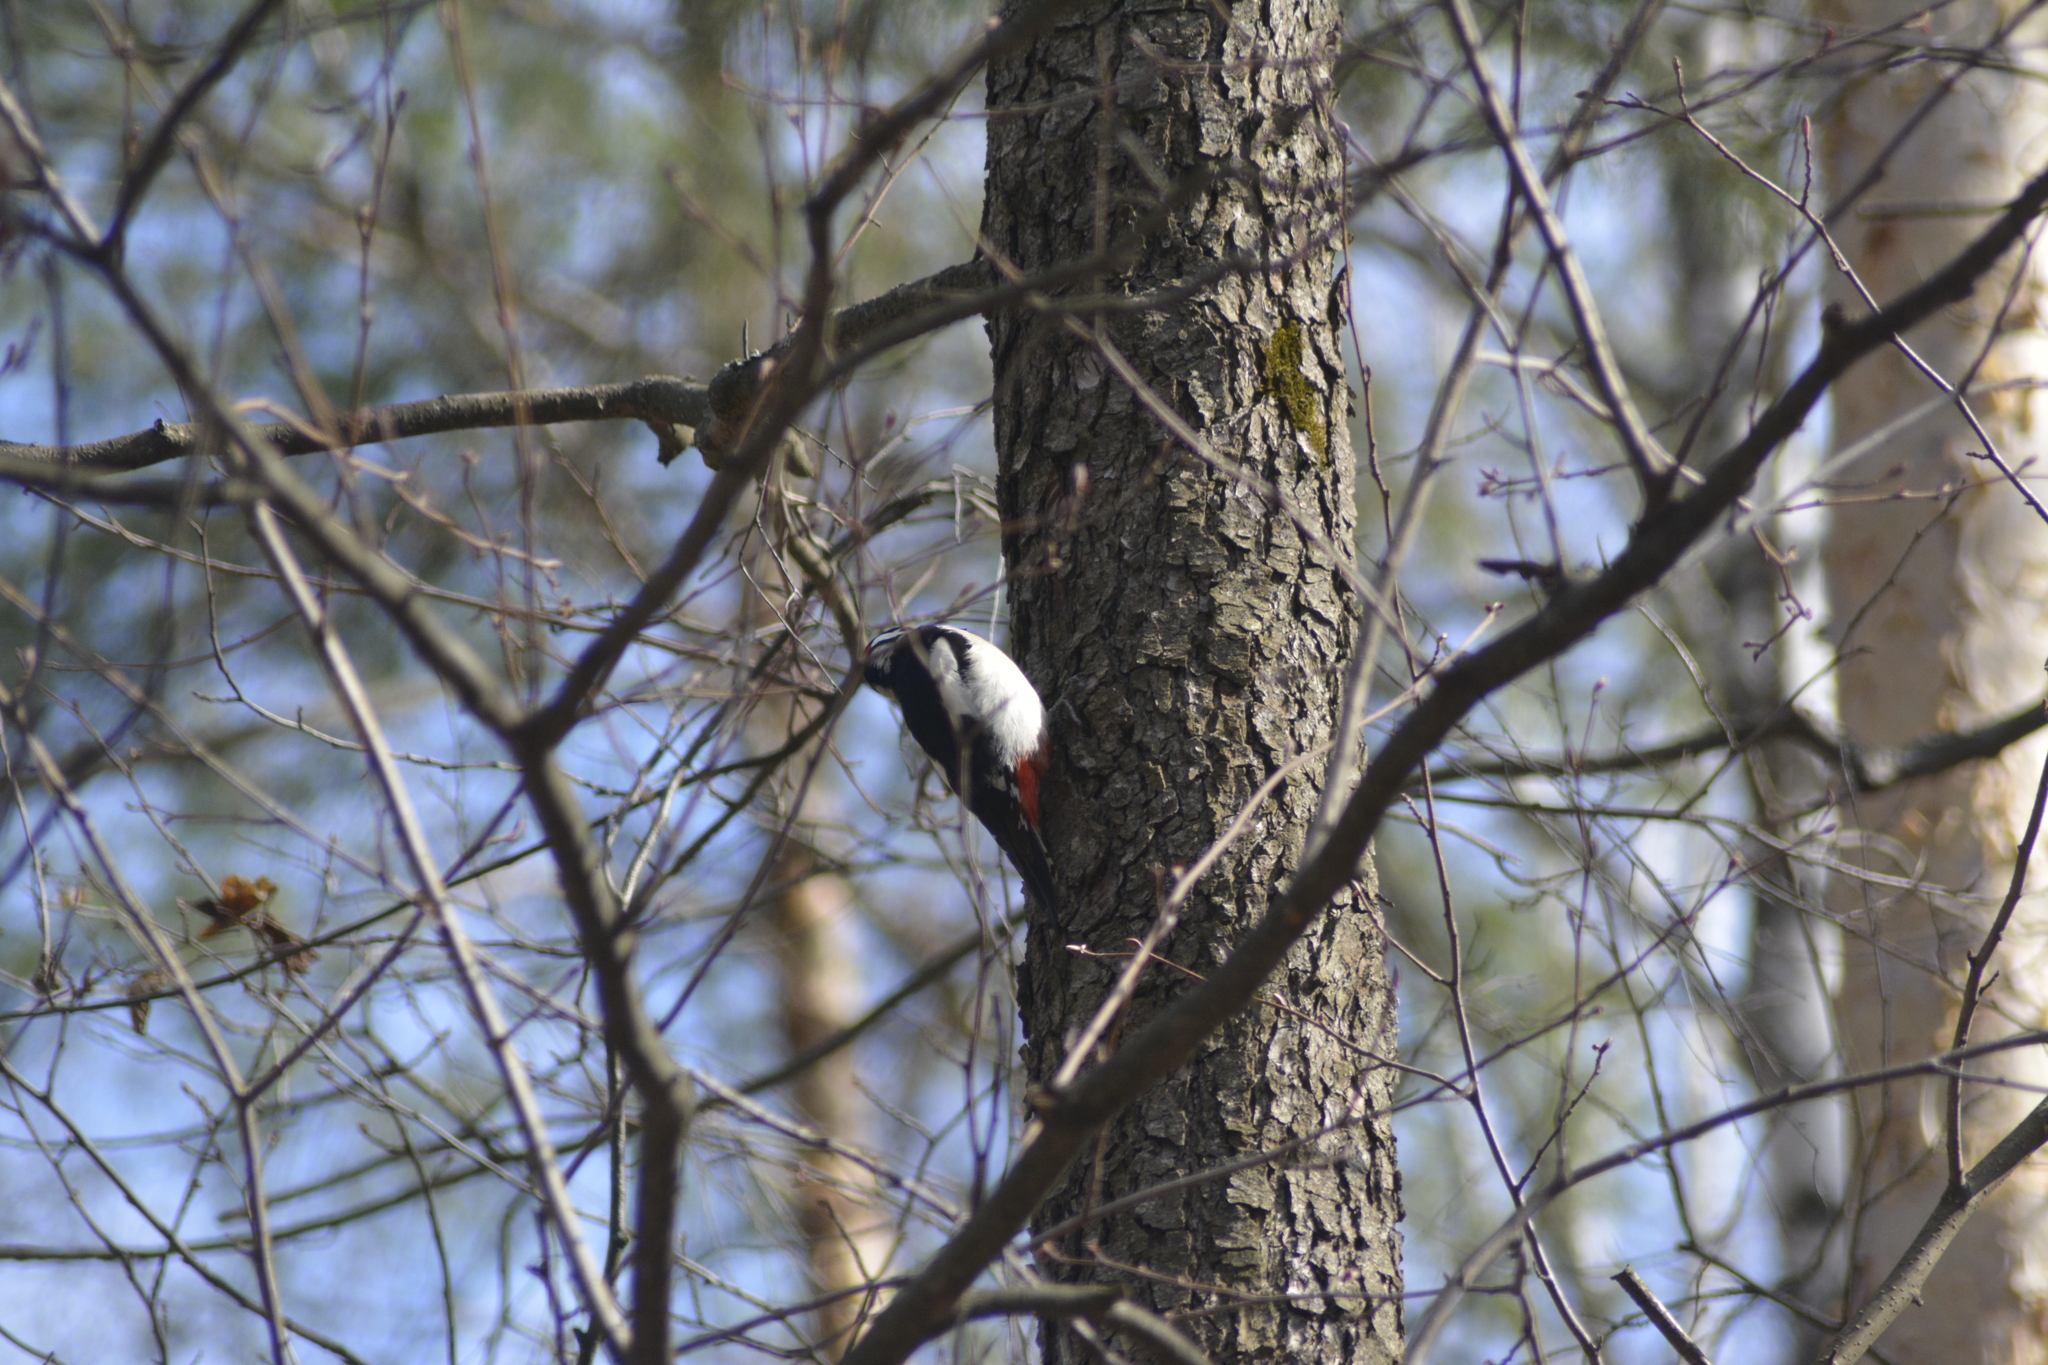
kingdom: Animalia
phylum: Chordata
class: Aves
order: Piciformes
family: Picidae
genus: Dendrocopos
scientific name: Dendrocopos major
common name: Great spotted woodpecker
